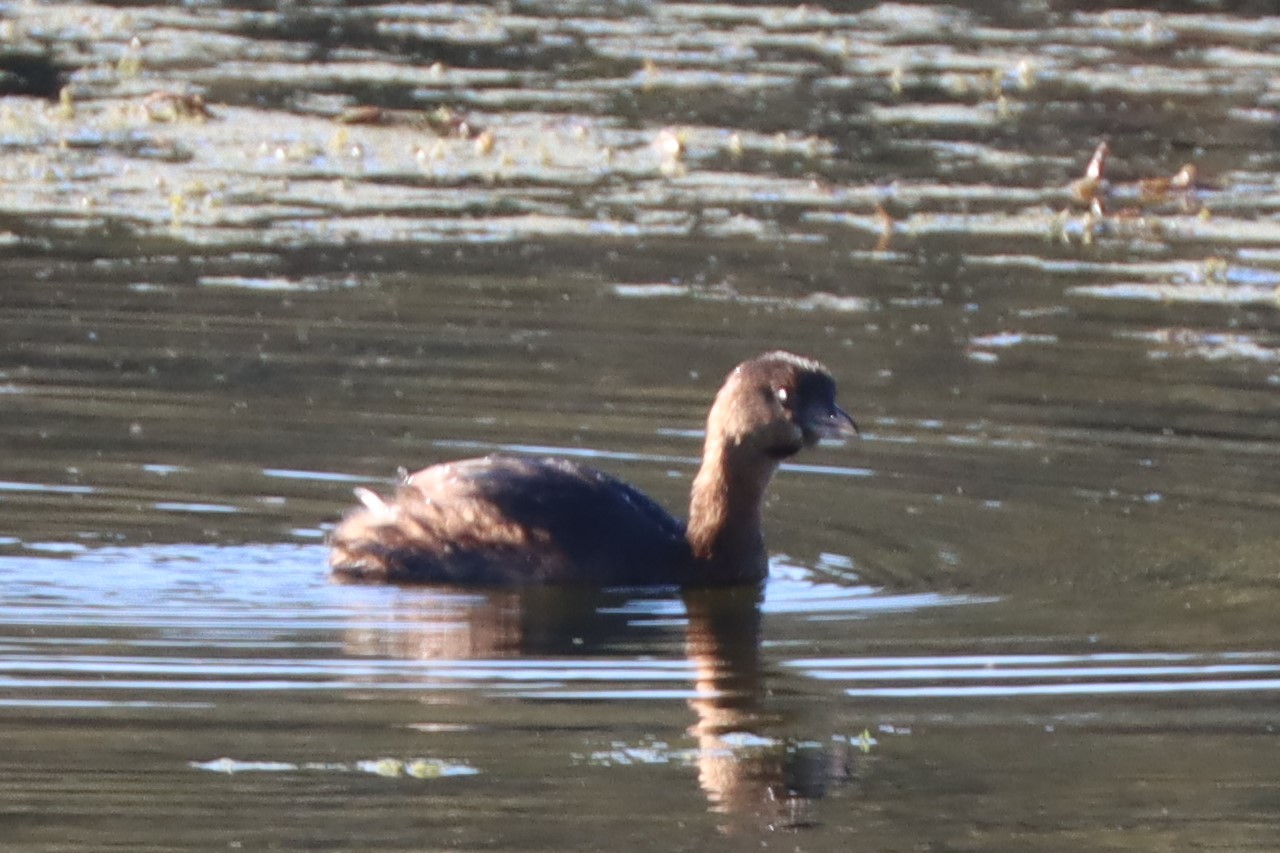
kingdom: Animalia
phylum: Chordata
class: Aves
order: Podicipediformes
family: Podicipedidae
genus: Podilymbus
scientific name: Podilymbus podiceps
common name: Pied-billed grebe
